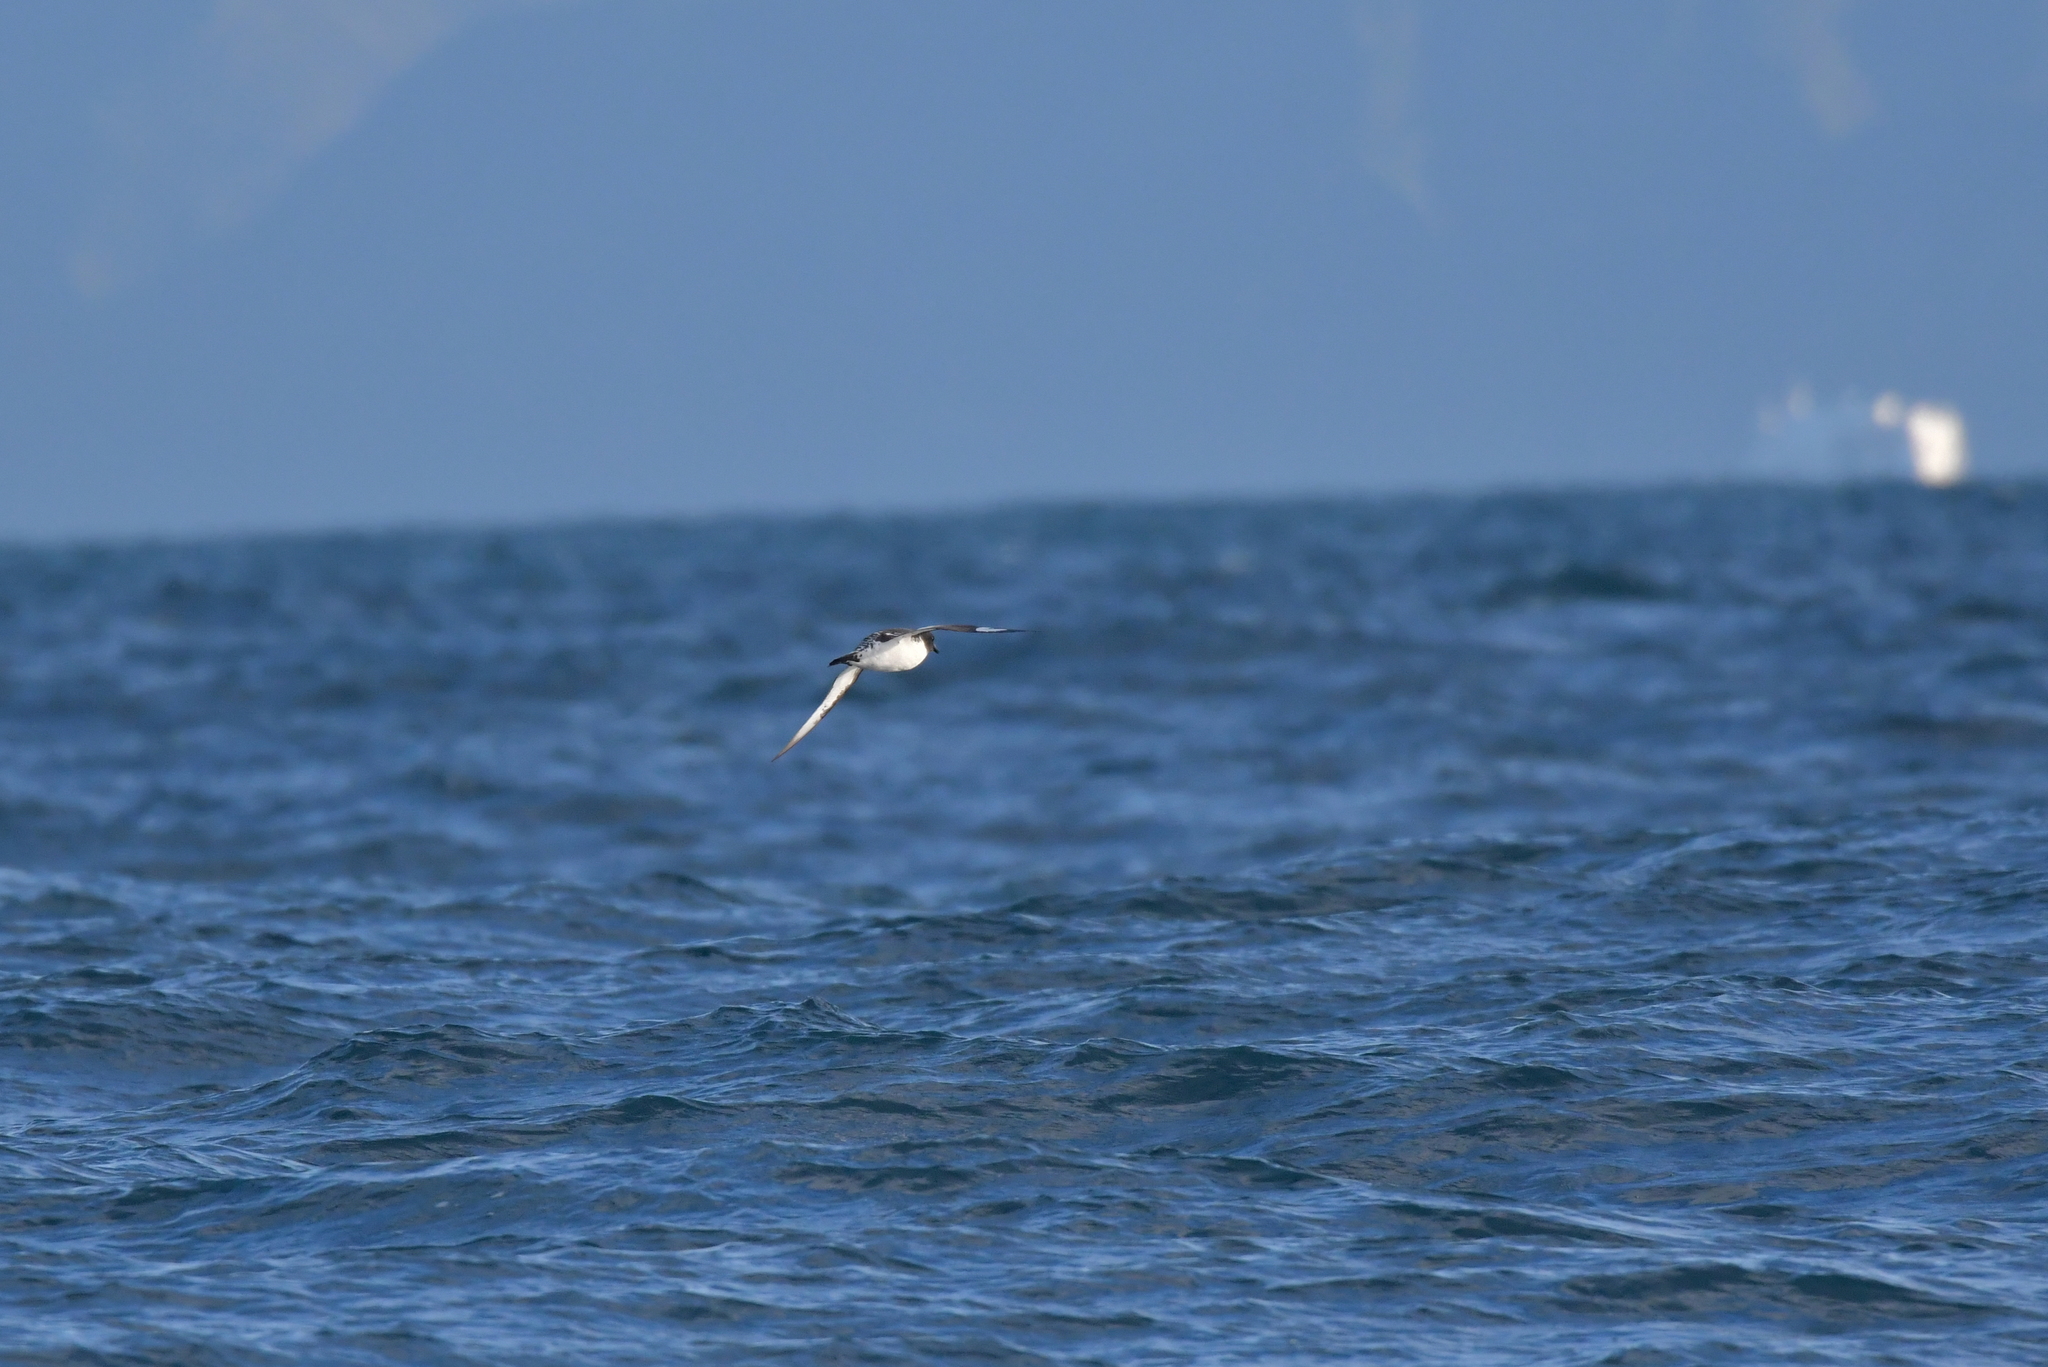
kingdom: Animalia
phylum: Chordata
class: Aves
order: Procellariiformes
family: Procellariidae
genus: Daption
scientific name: Daption capense
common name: Cape petrel
